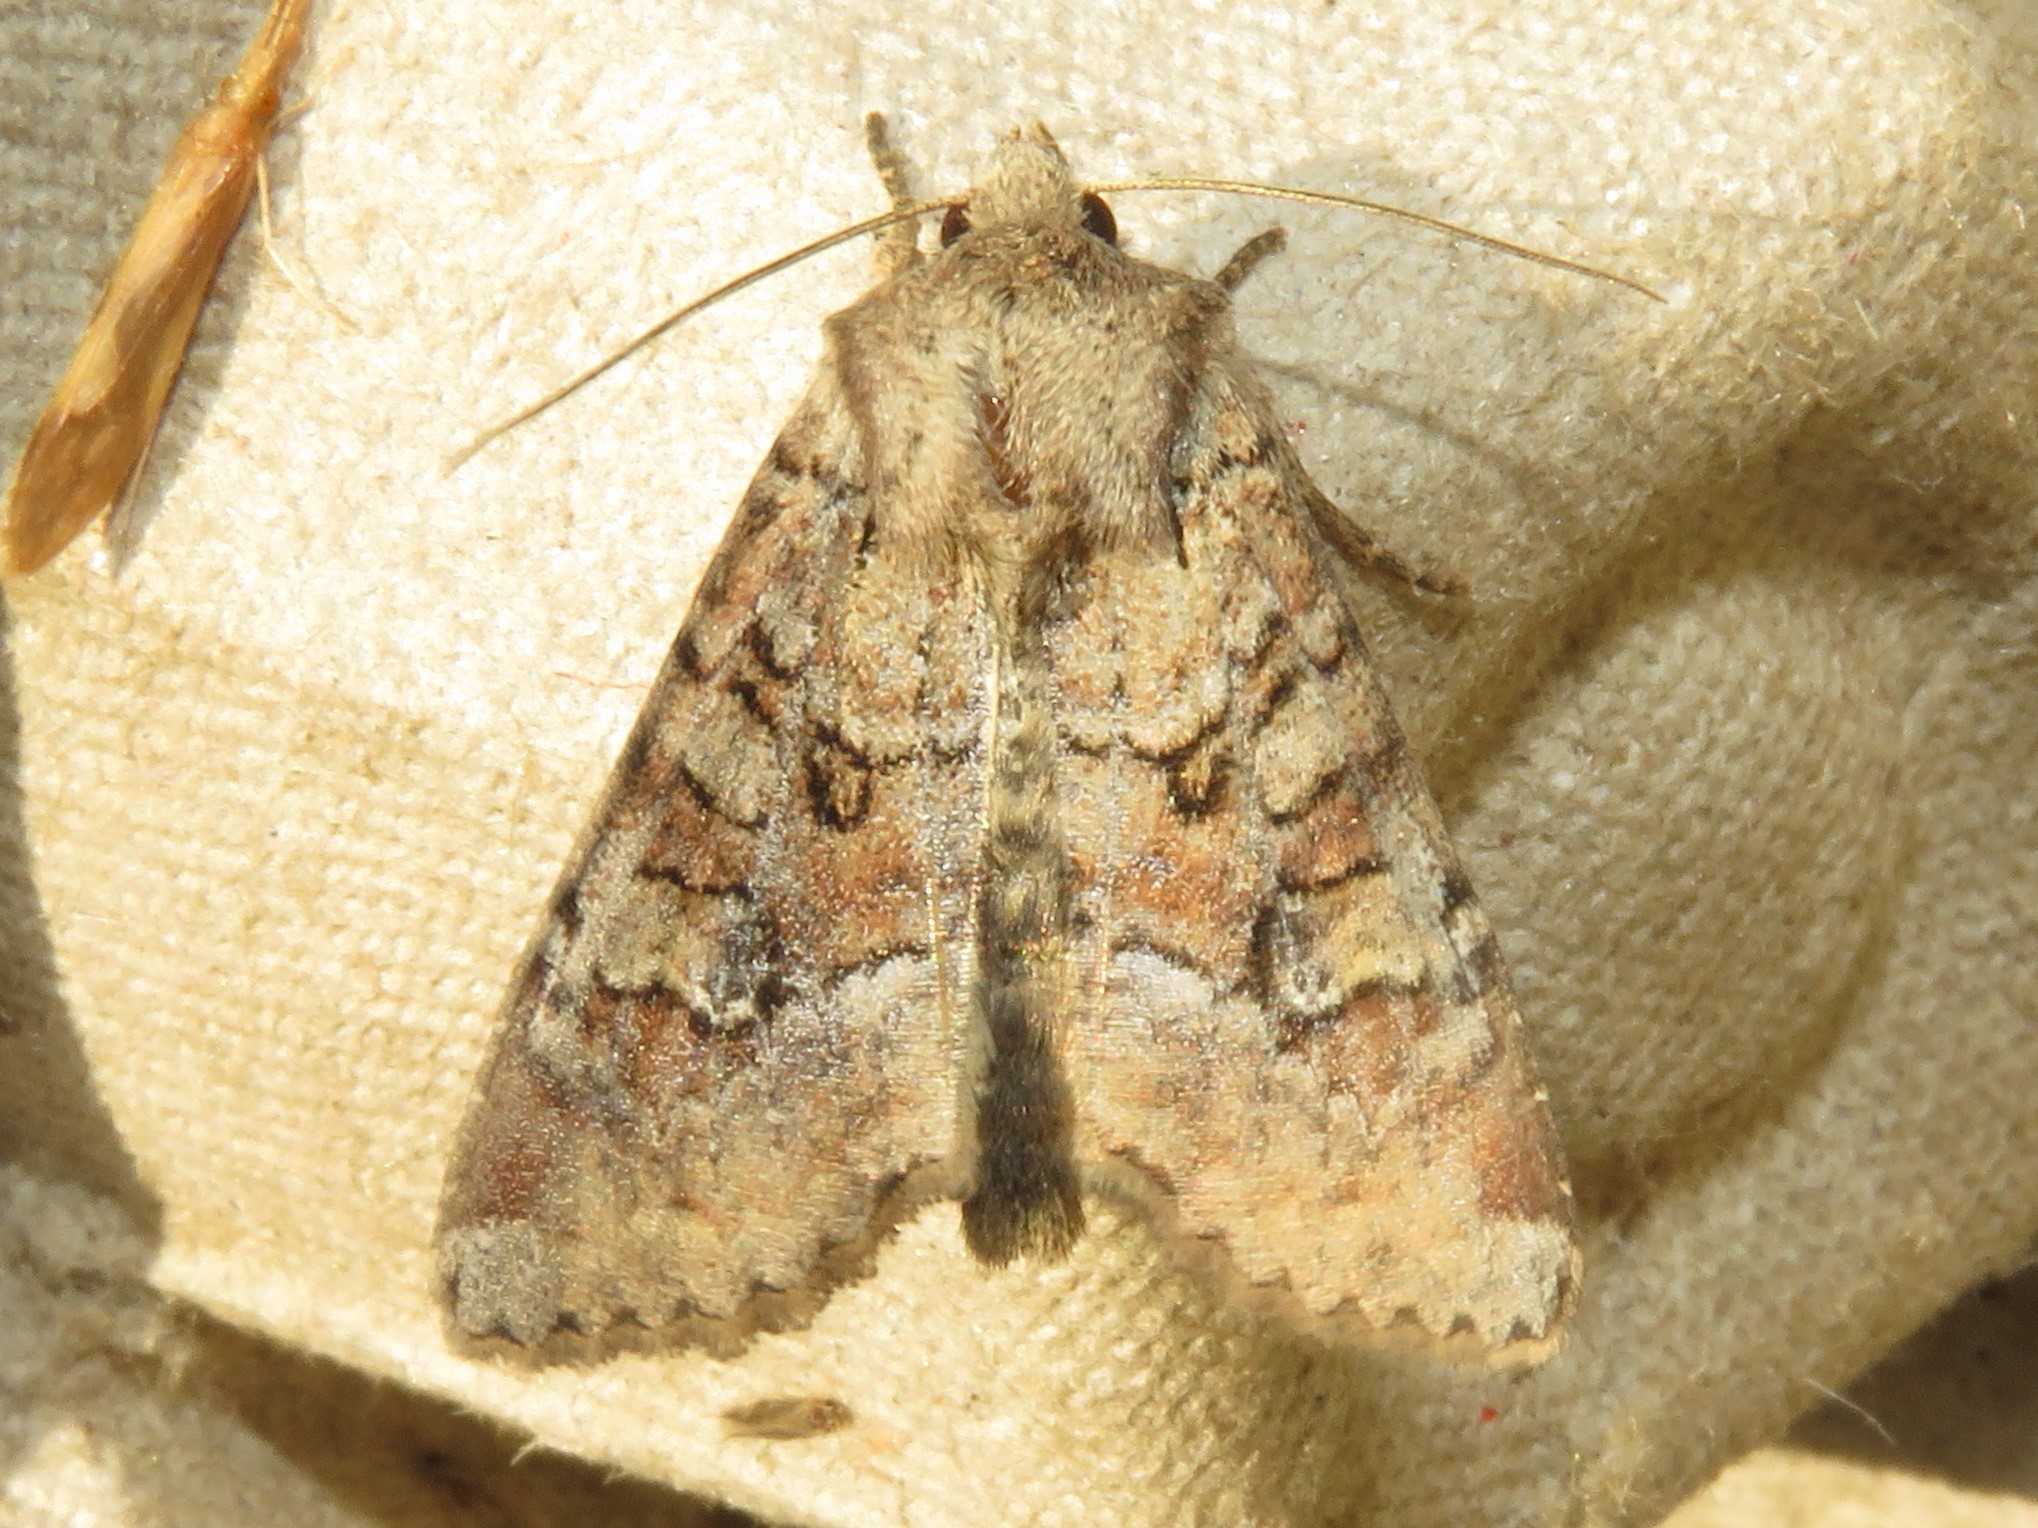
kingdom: Animalia
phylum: Arthropoda
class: Insecta
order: Lepidoptera
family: Noctuidae
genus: Apamea
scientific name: Apamea sordens
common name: Rustic shoulder-knot
